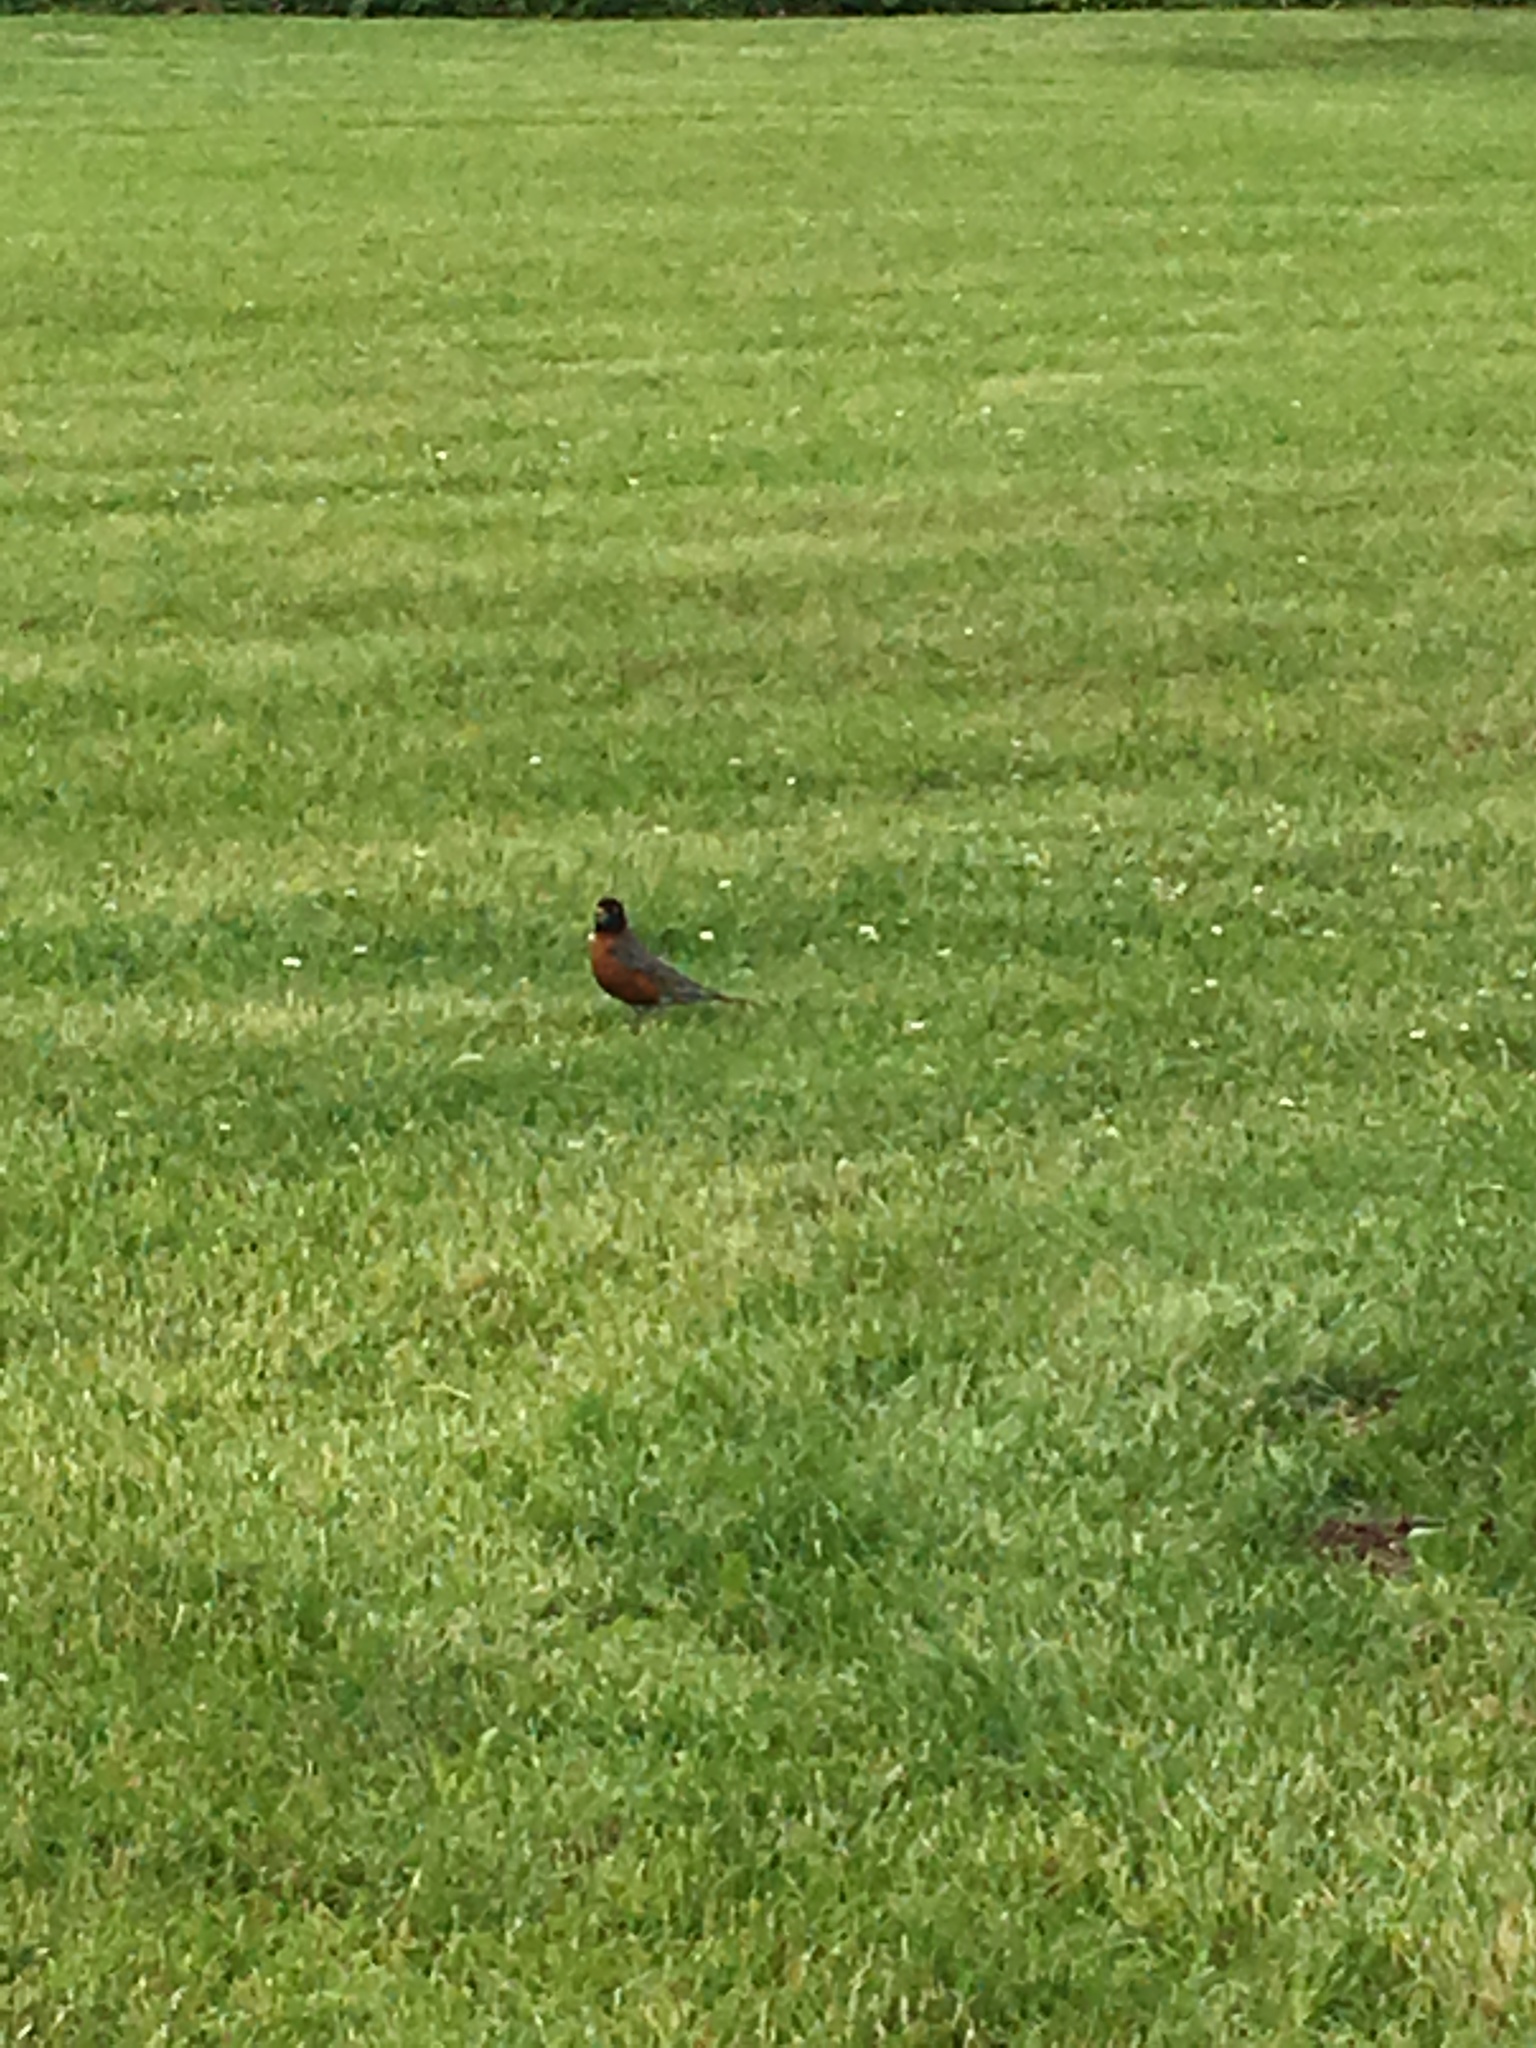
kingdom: Animalia
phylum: Chordata
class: Aves
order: Passeriformes
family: Turdidae
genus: Turdus
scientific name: Turdus migratorius
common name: American robin
